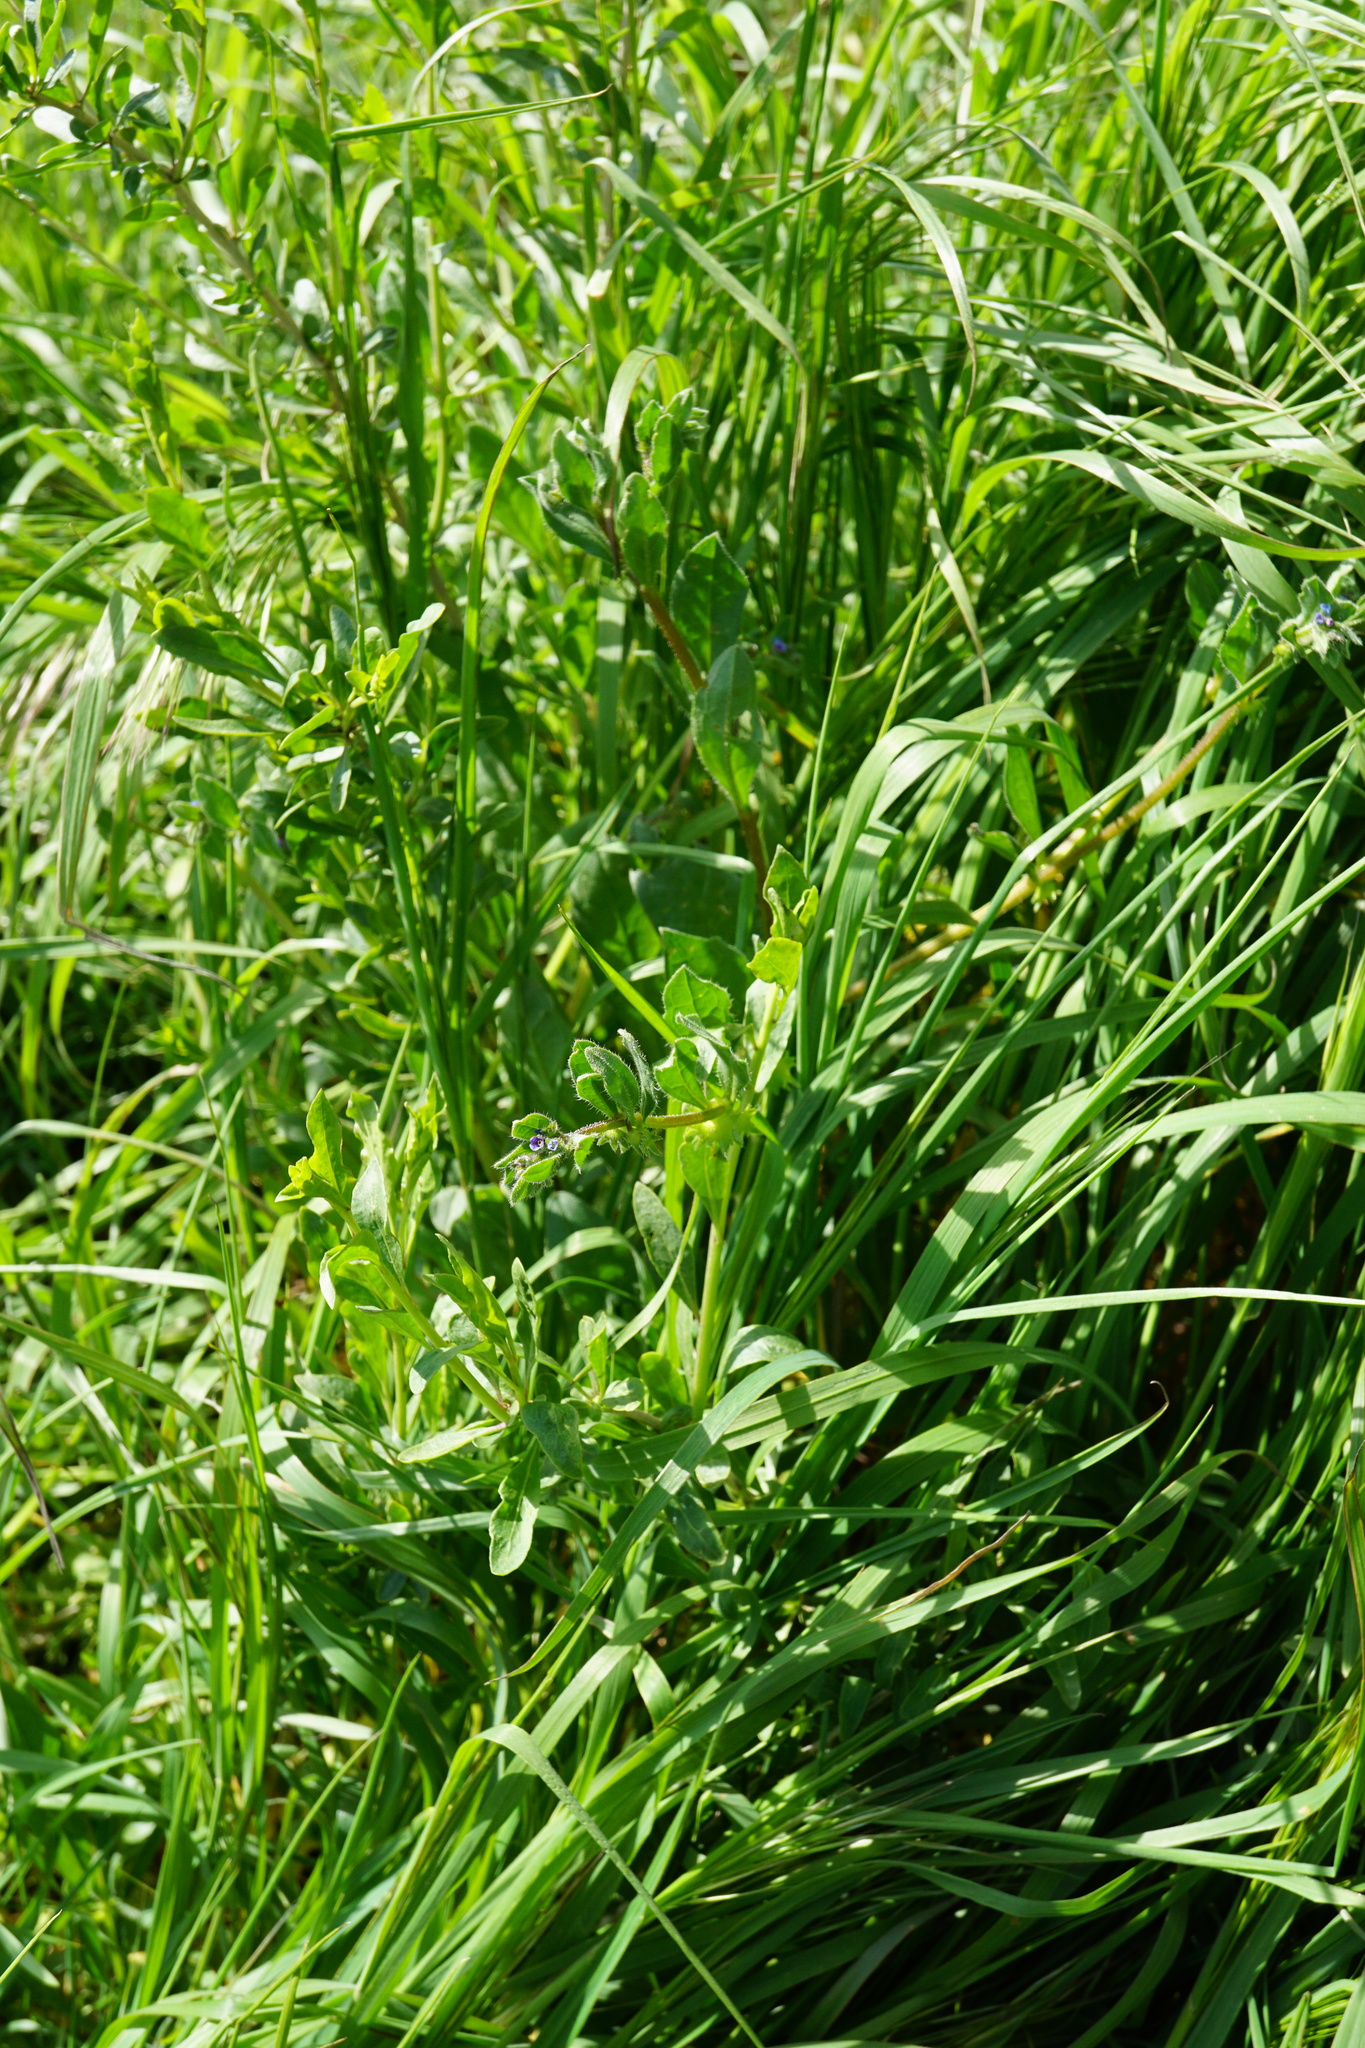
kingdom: Plantae
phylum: Tracheophyta
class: Magnoliopsida
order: Boraginales
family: Boraginaceae
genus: Asperugo
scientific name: Asperugo procumbens
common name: Madwort
